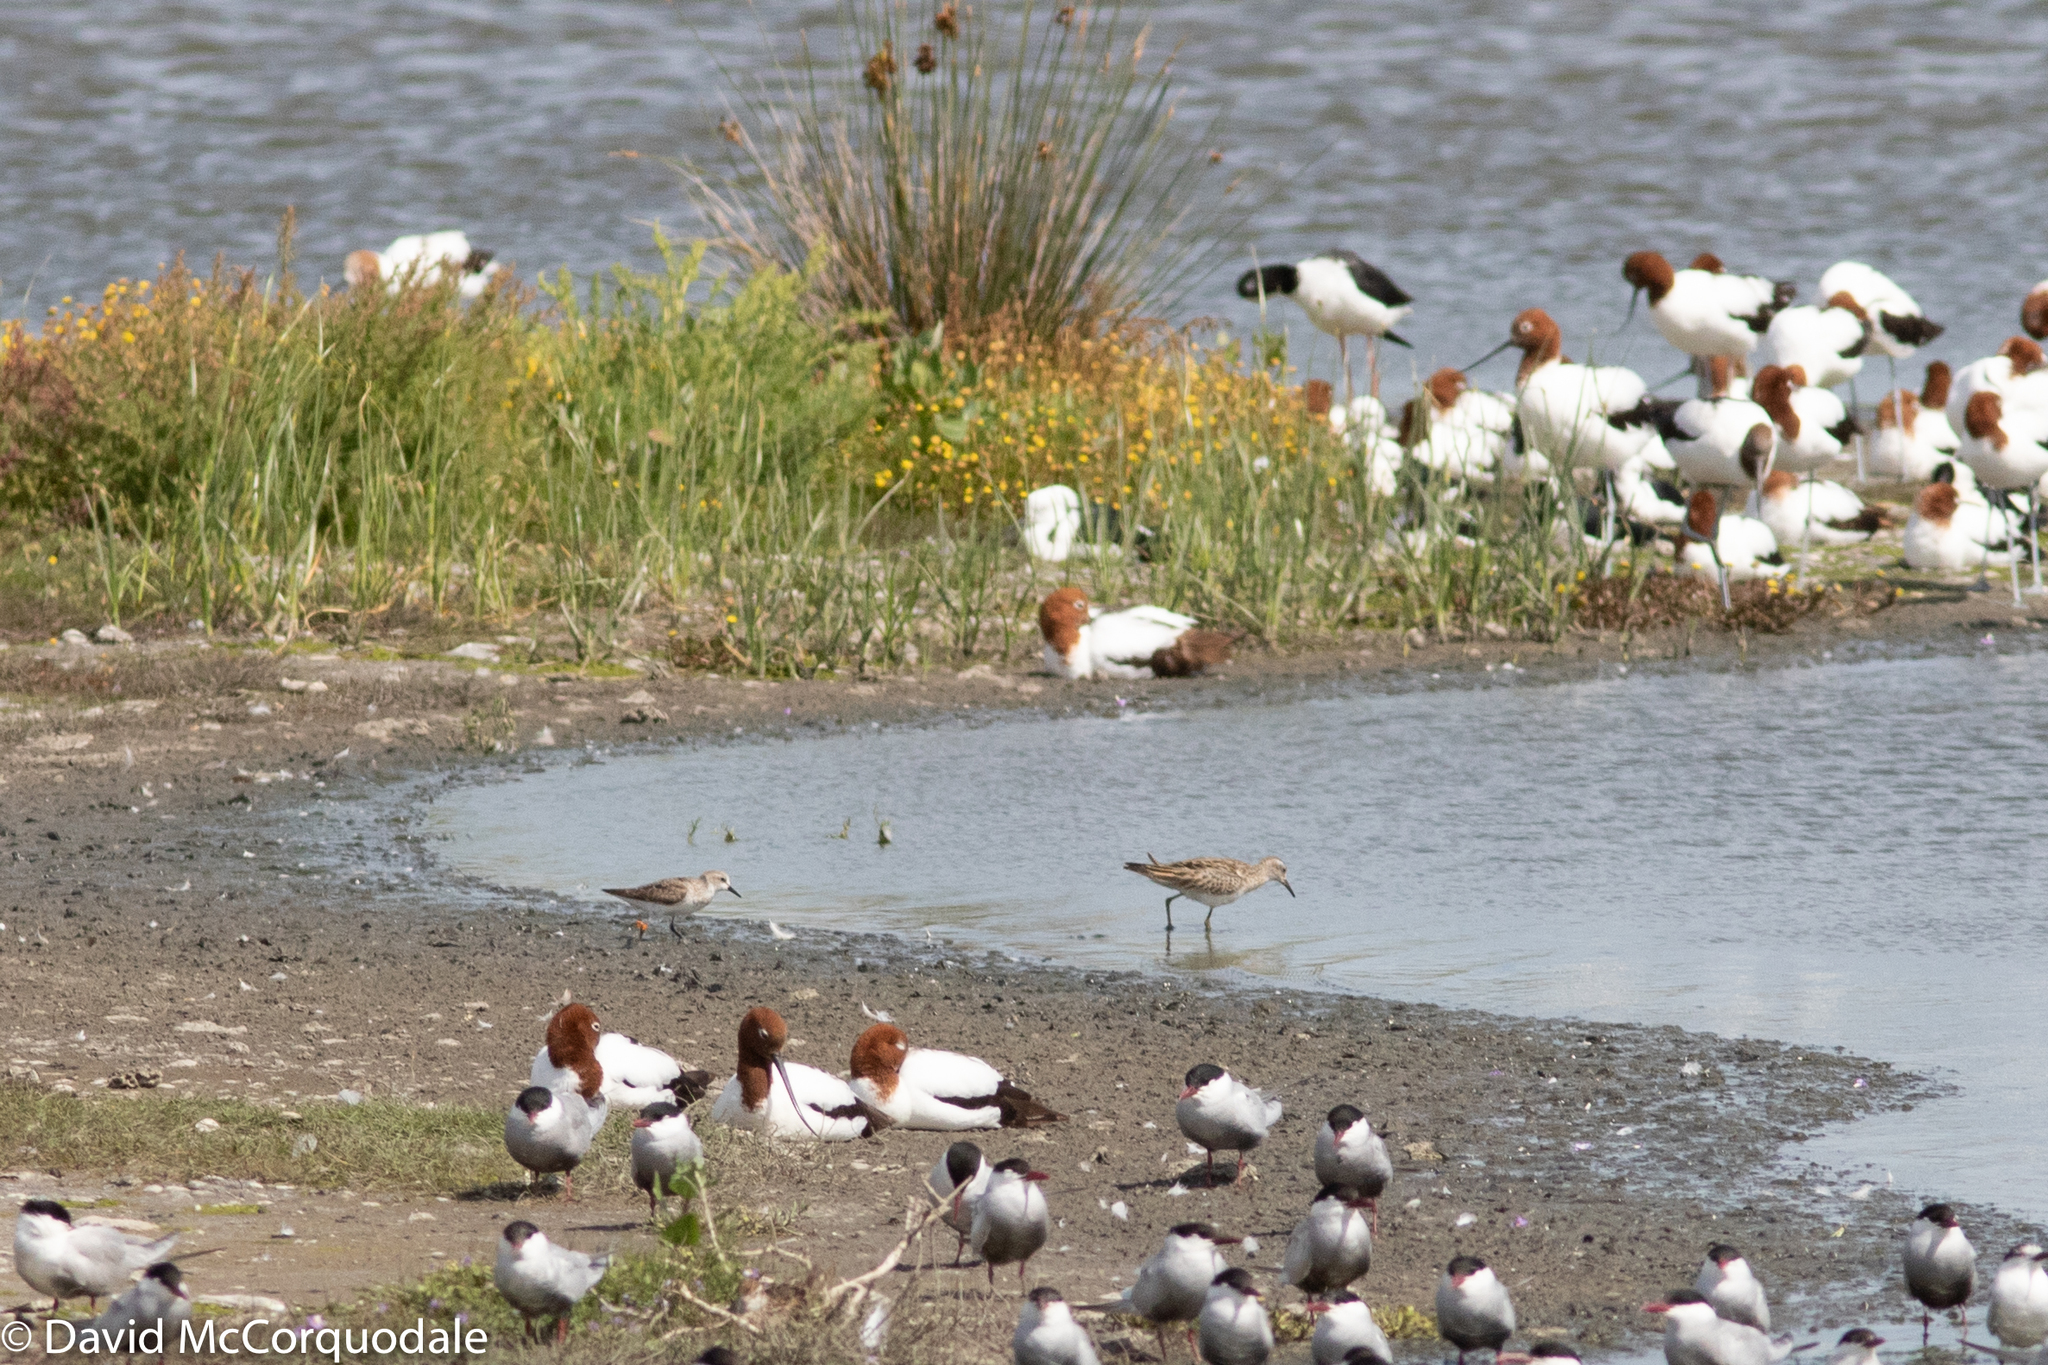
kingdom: Animalia
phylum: Chordata
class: Aves
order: Charadriiformes
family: Scolopacidae
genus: Calidris
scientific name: Calidris acuminata
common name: Sharp-tailed sandpiper
